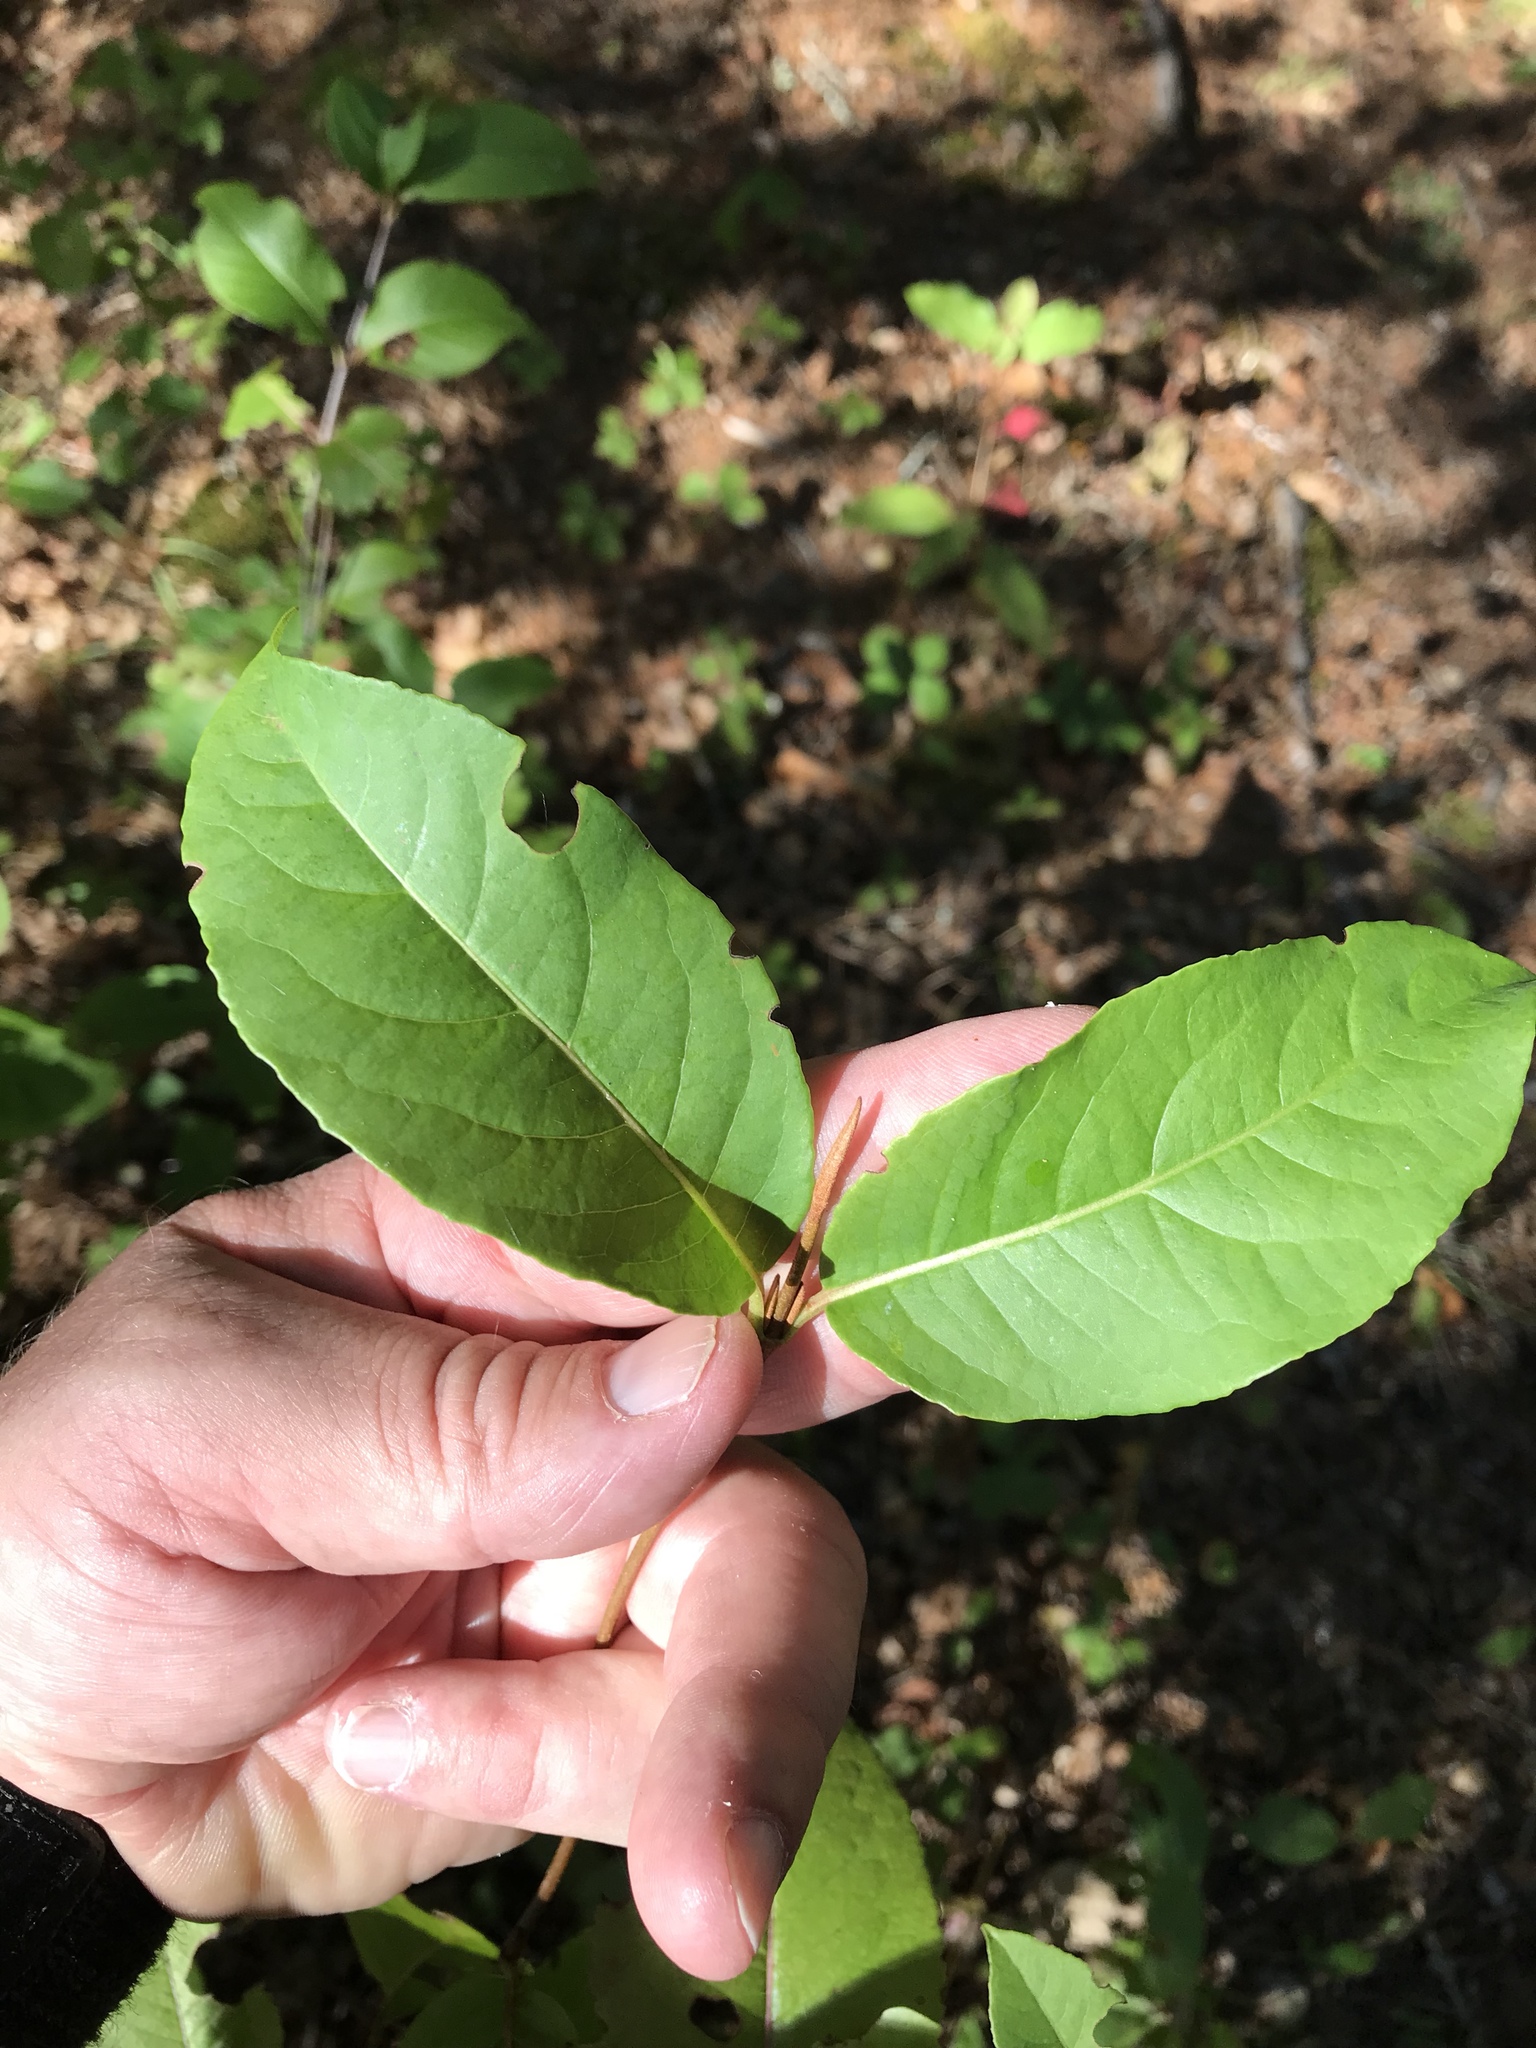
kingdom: Plantae
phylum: Tracheophyta
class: Magnoliopsida
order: Dipsacales
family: Viburnaceae
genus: Viburnum
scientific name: Viburnum cassinoides
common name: Swamp haw
